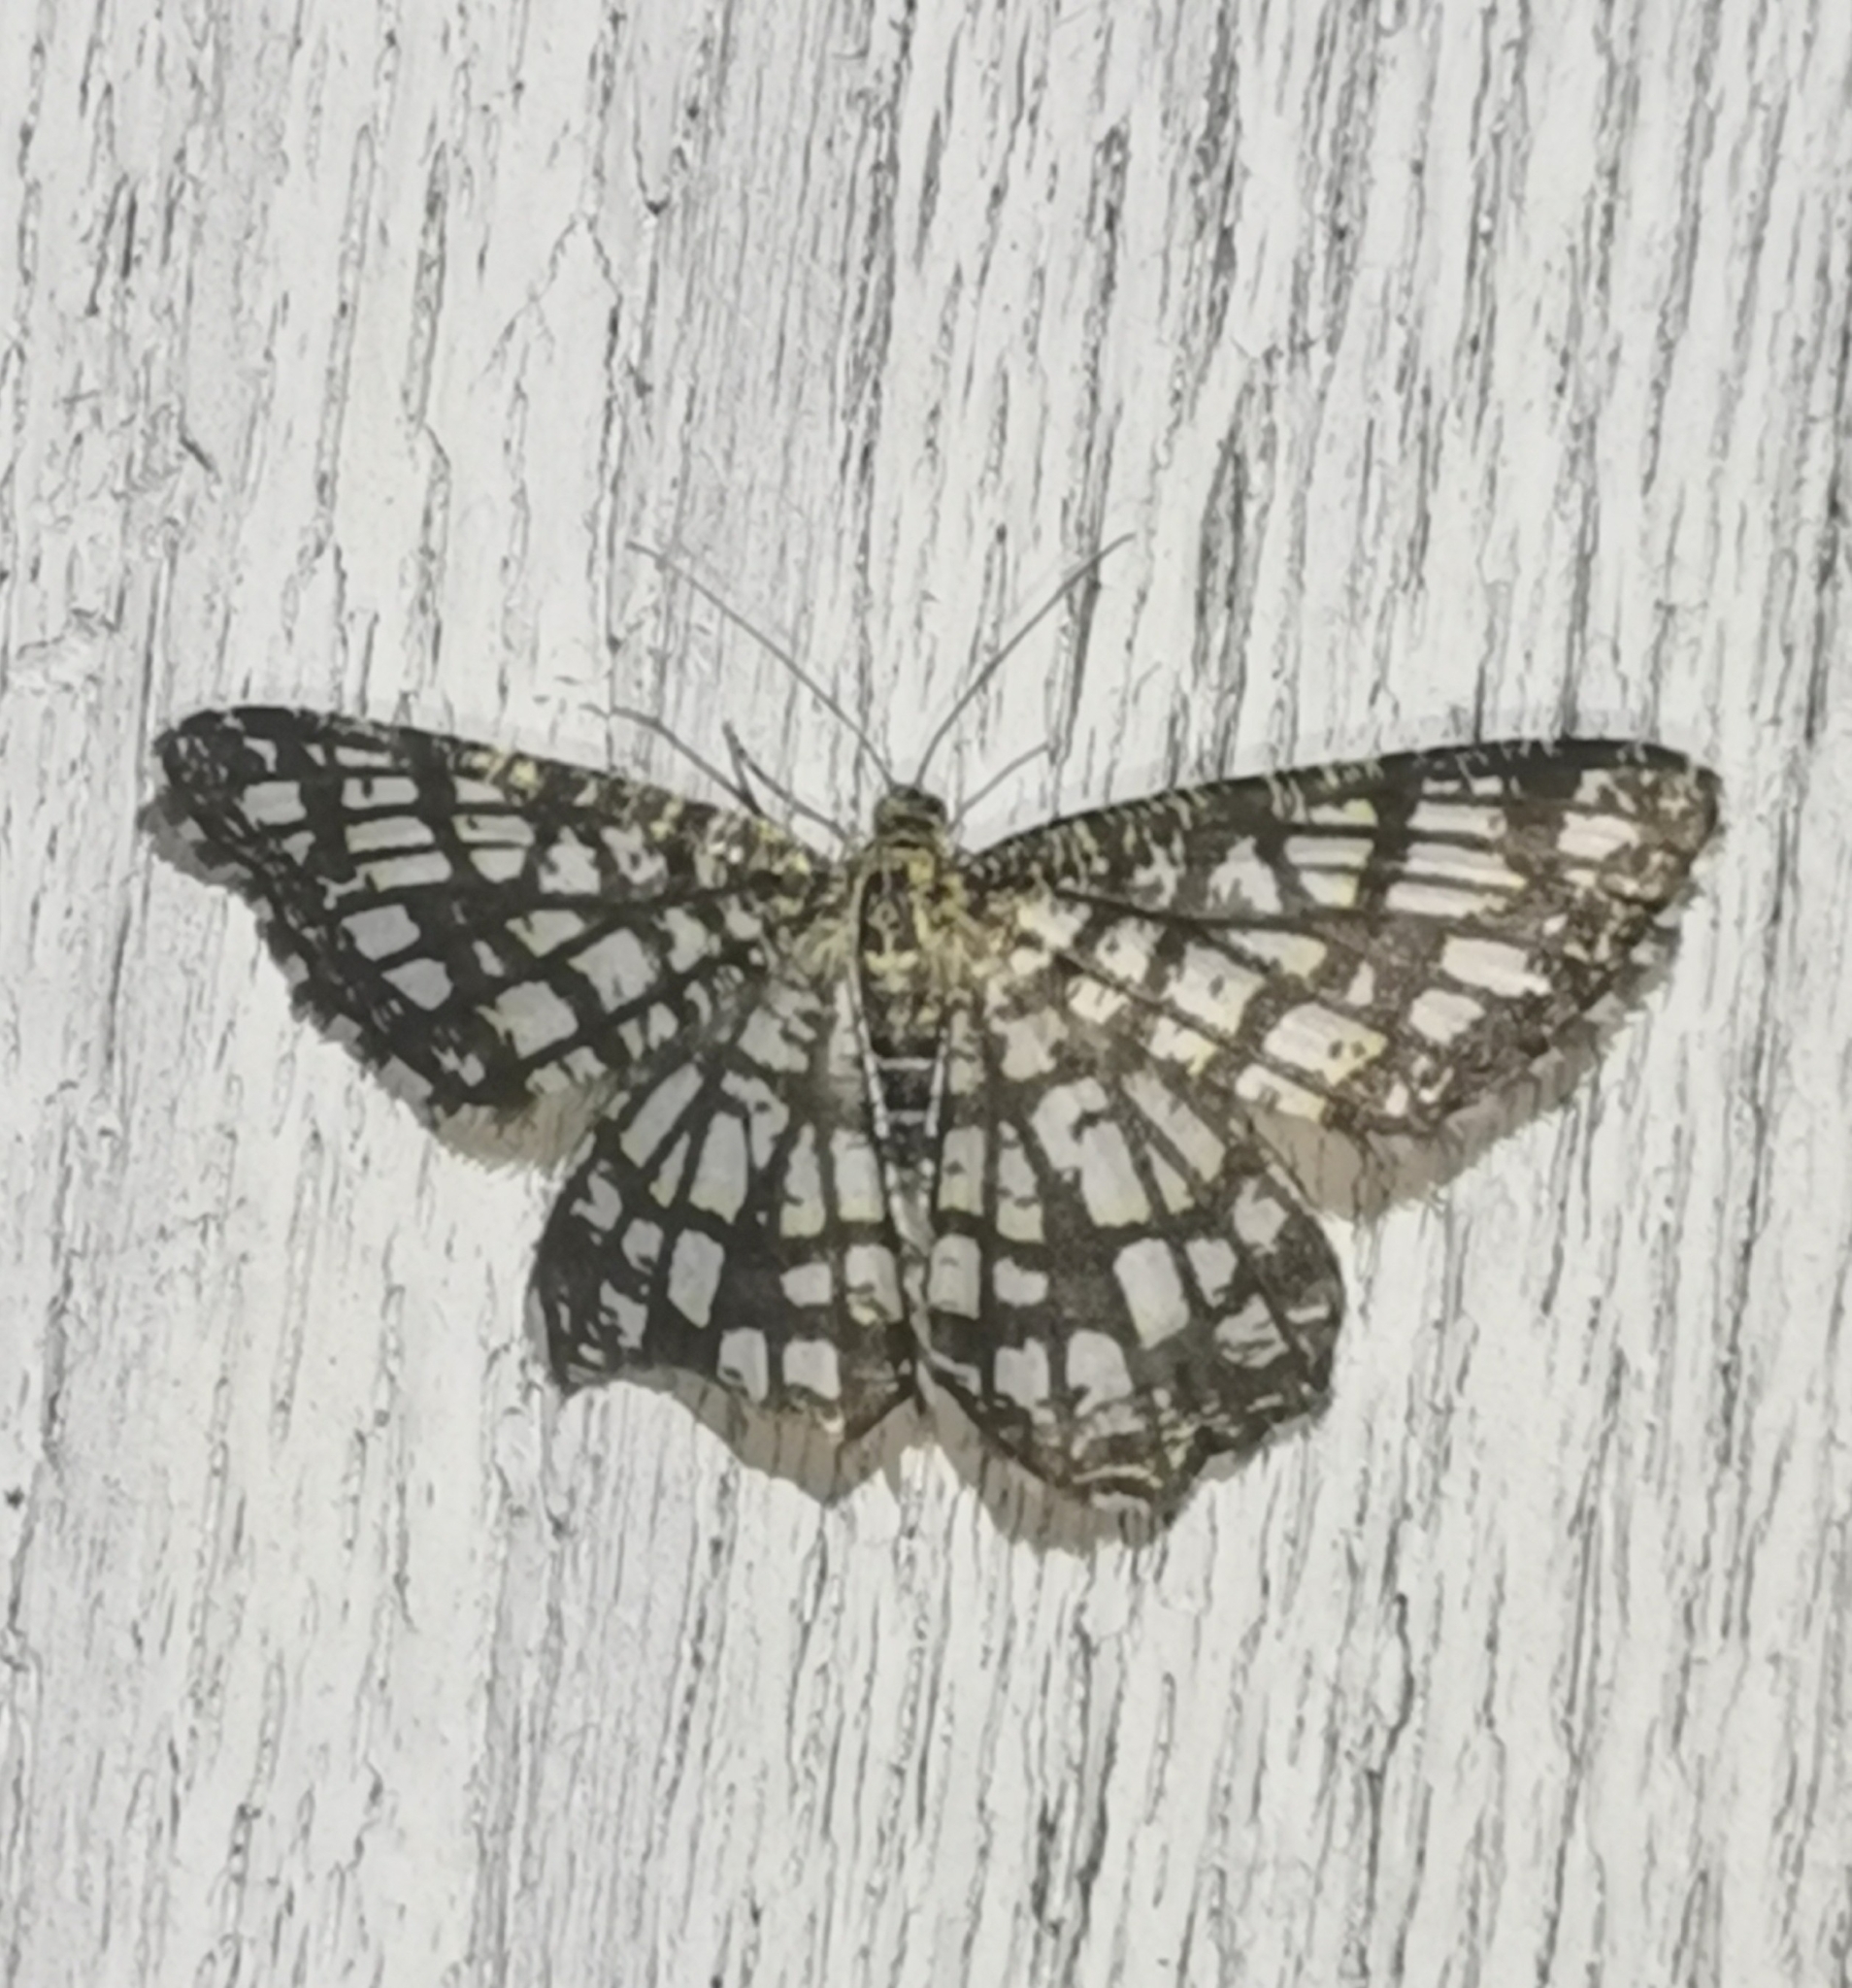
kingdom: Animalia
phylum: Arthropoda
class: Insecta
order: Lepidoptera
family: Geometridae
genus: Chiasmia
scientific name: Chiasmia clathrata
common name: Latticed heath
